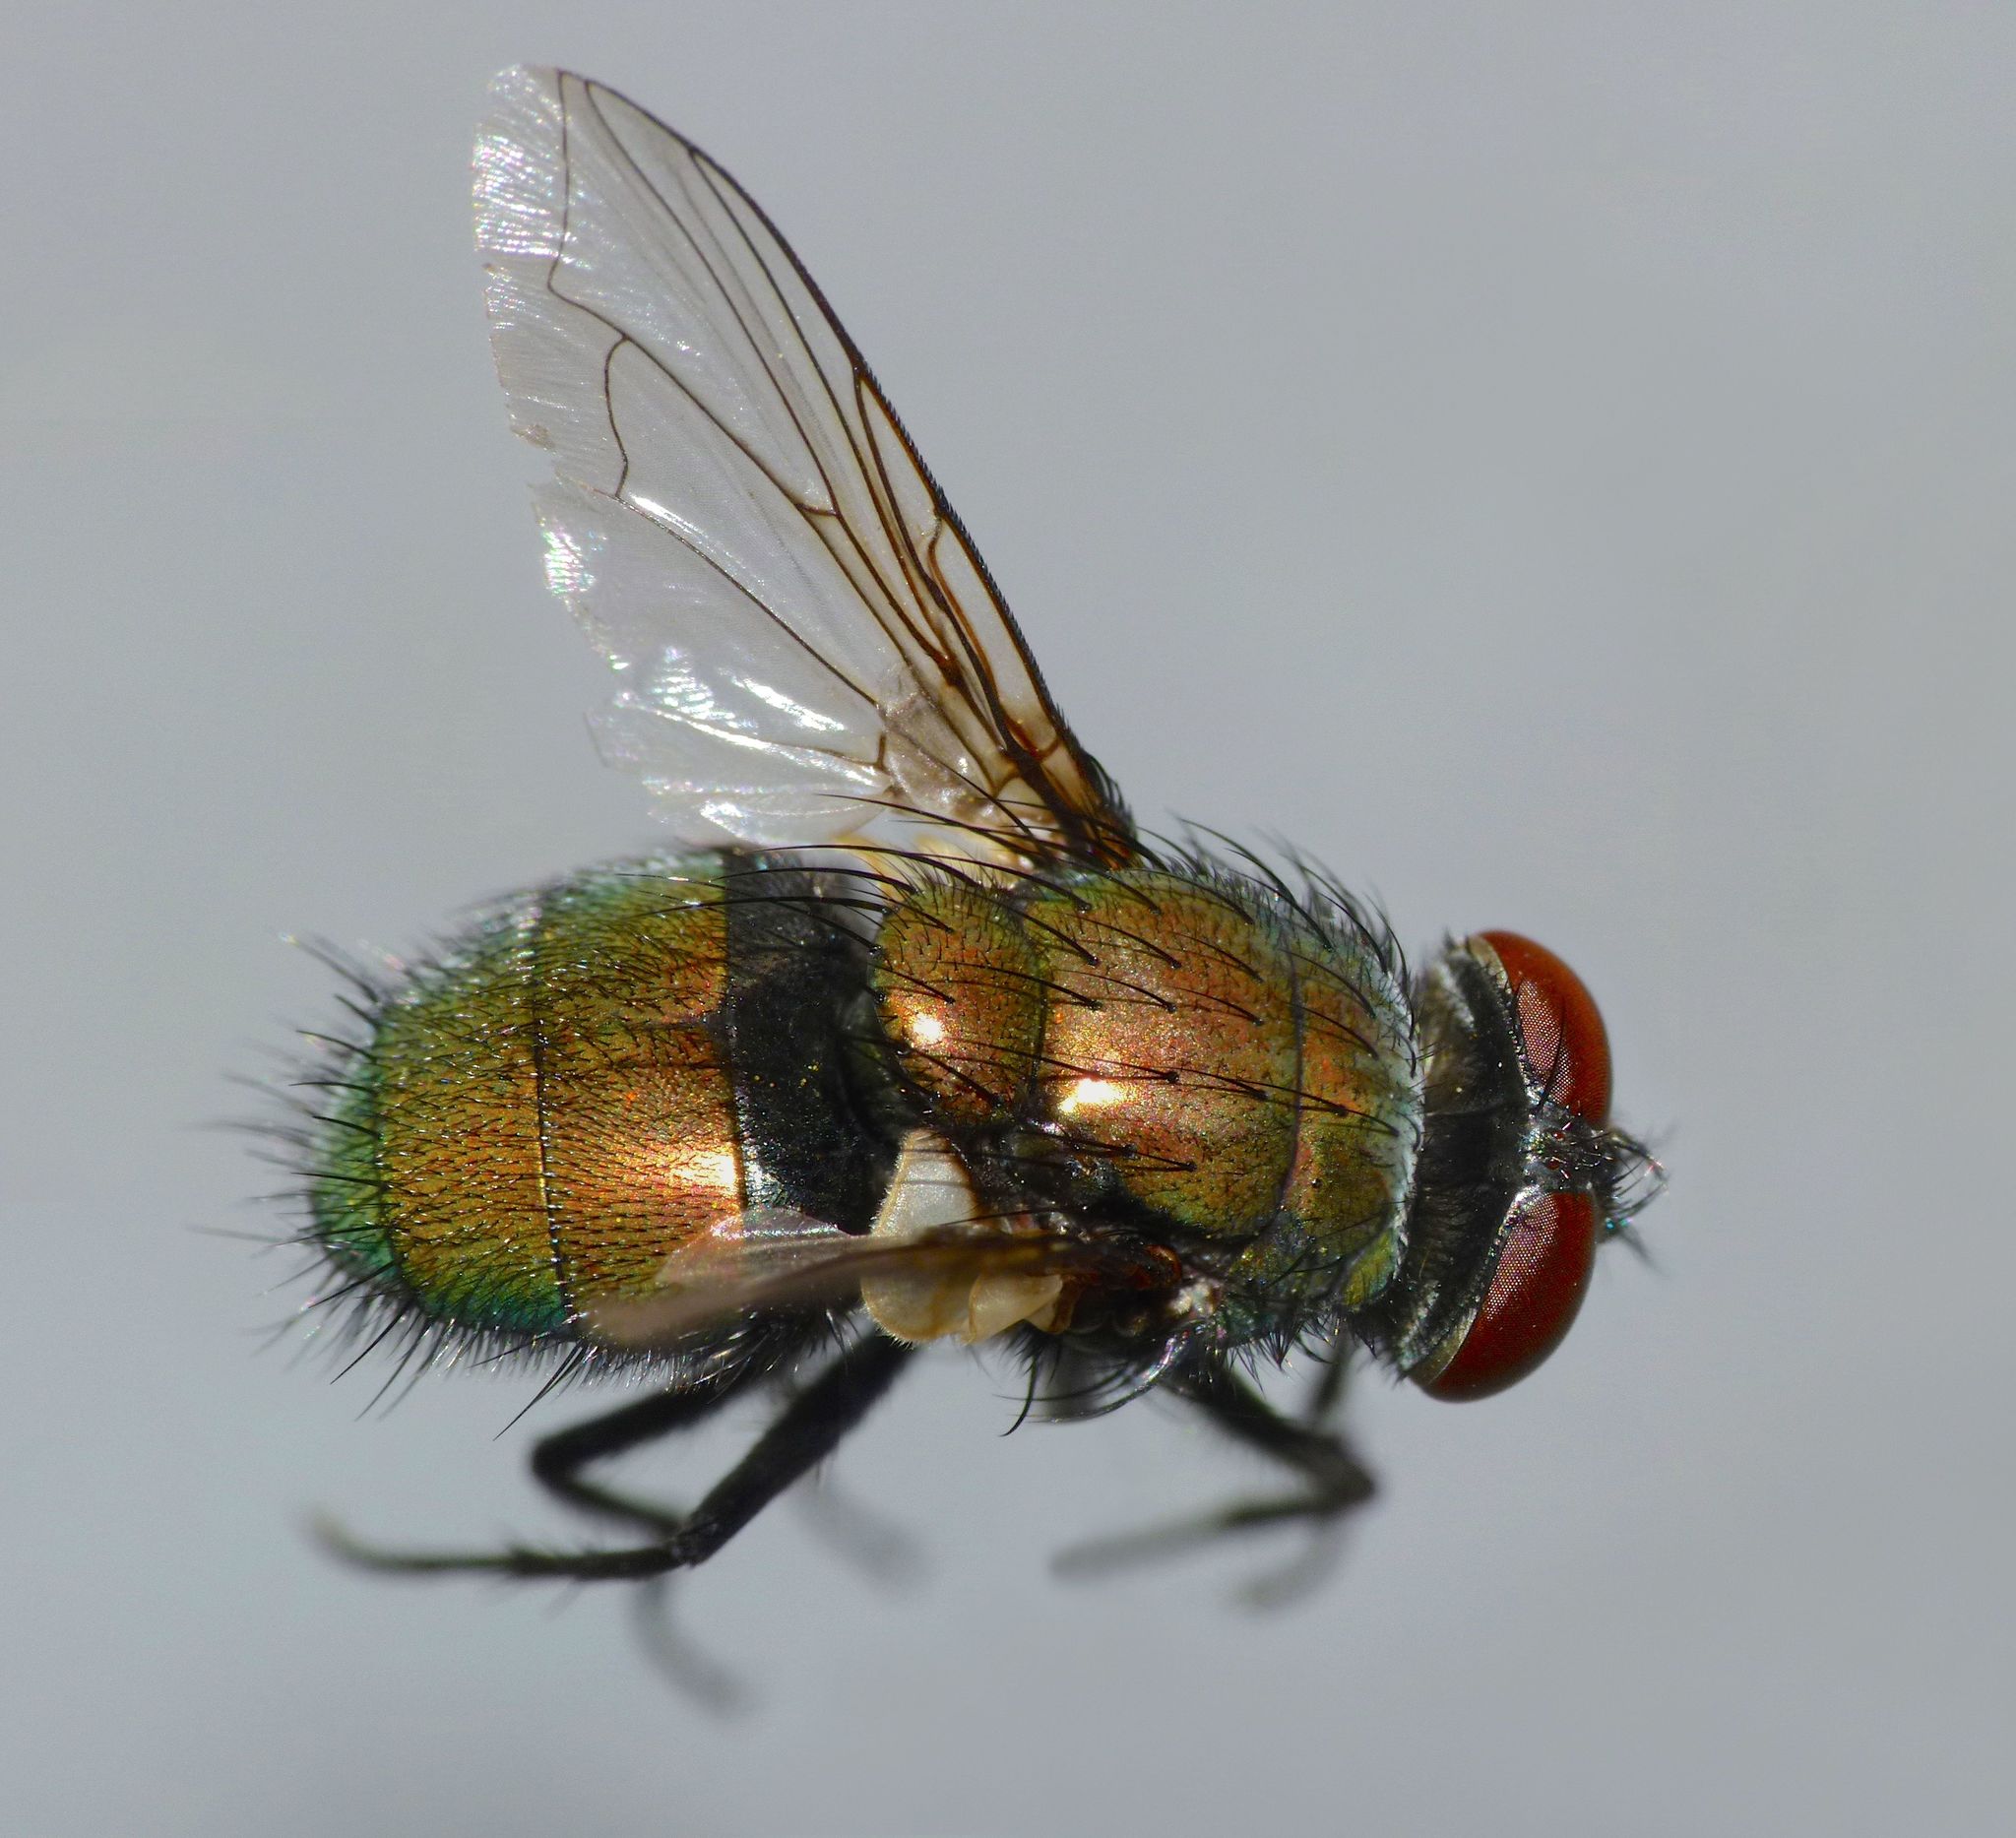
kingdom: Animalia
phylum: Arthropoda
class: Insecta
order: Diptera
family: Calliphoridae
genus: Lucilia
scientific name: Lucilia sericata
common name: Blow fly
